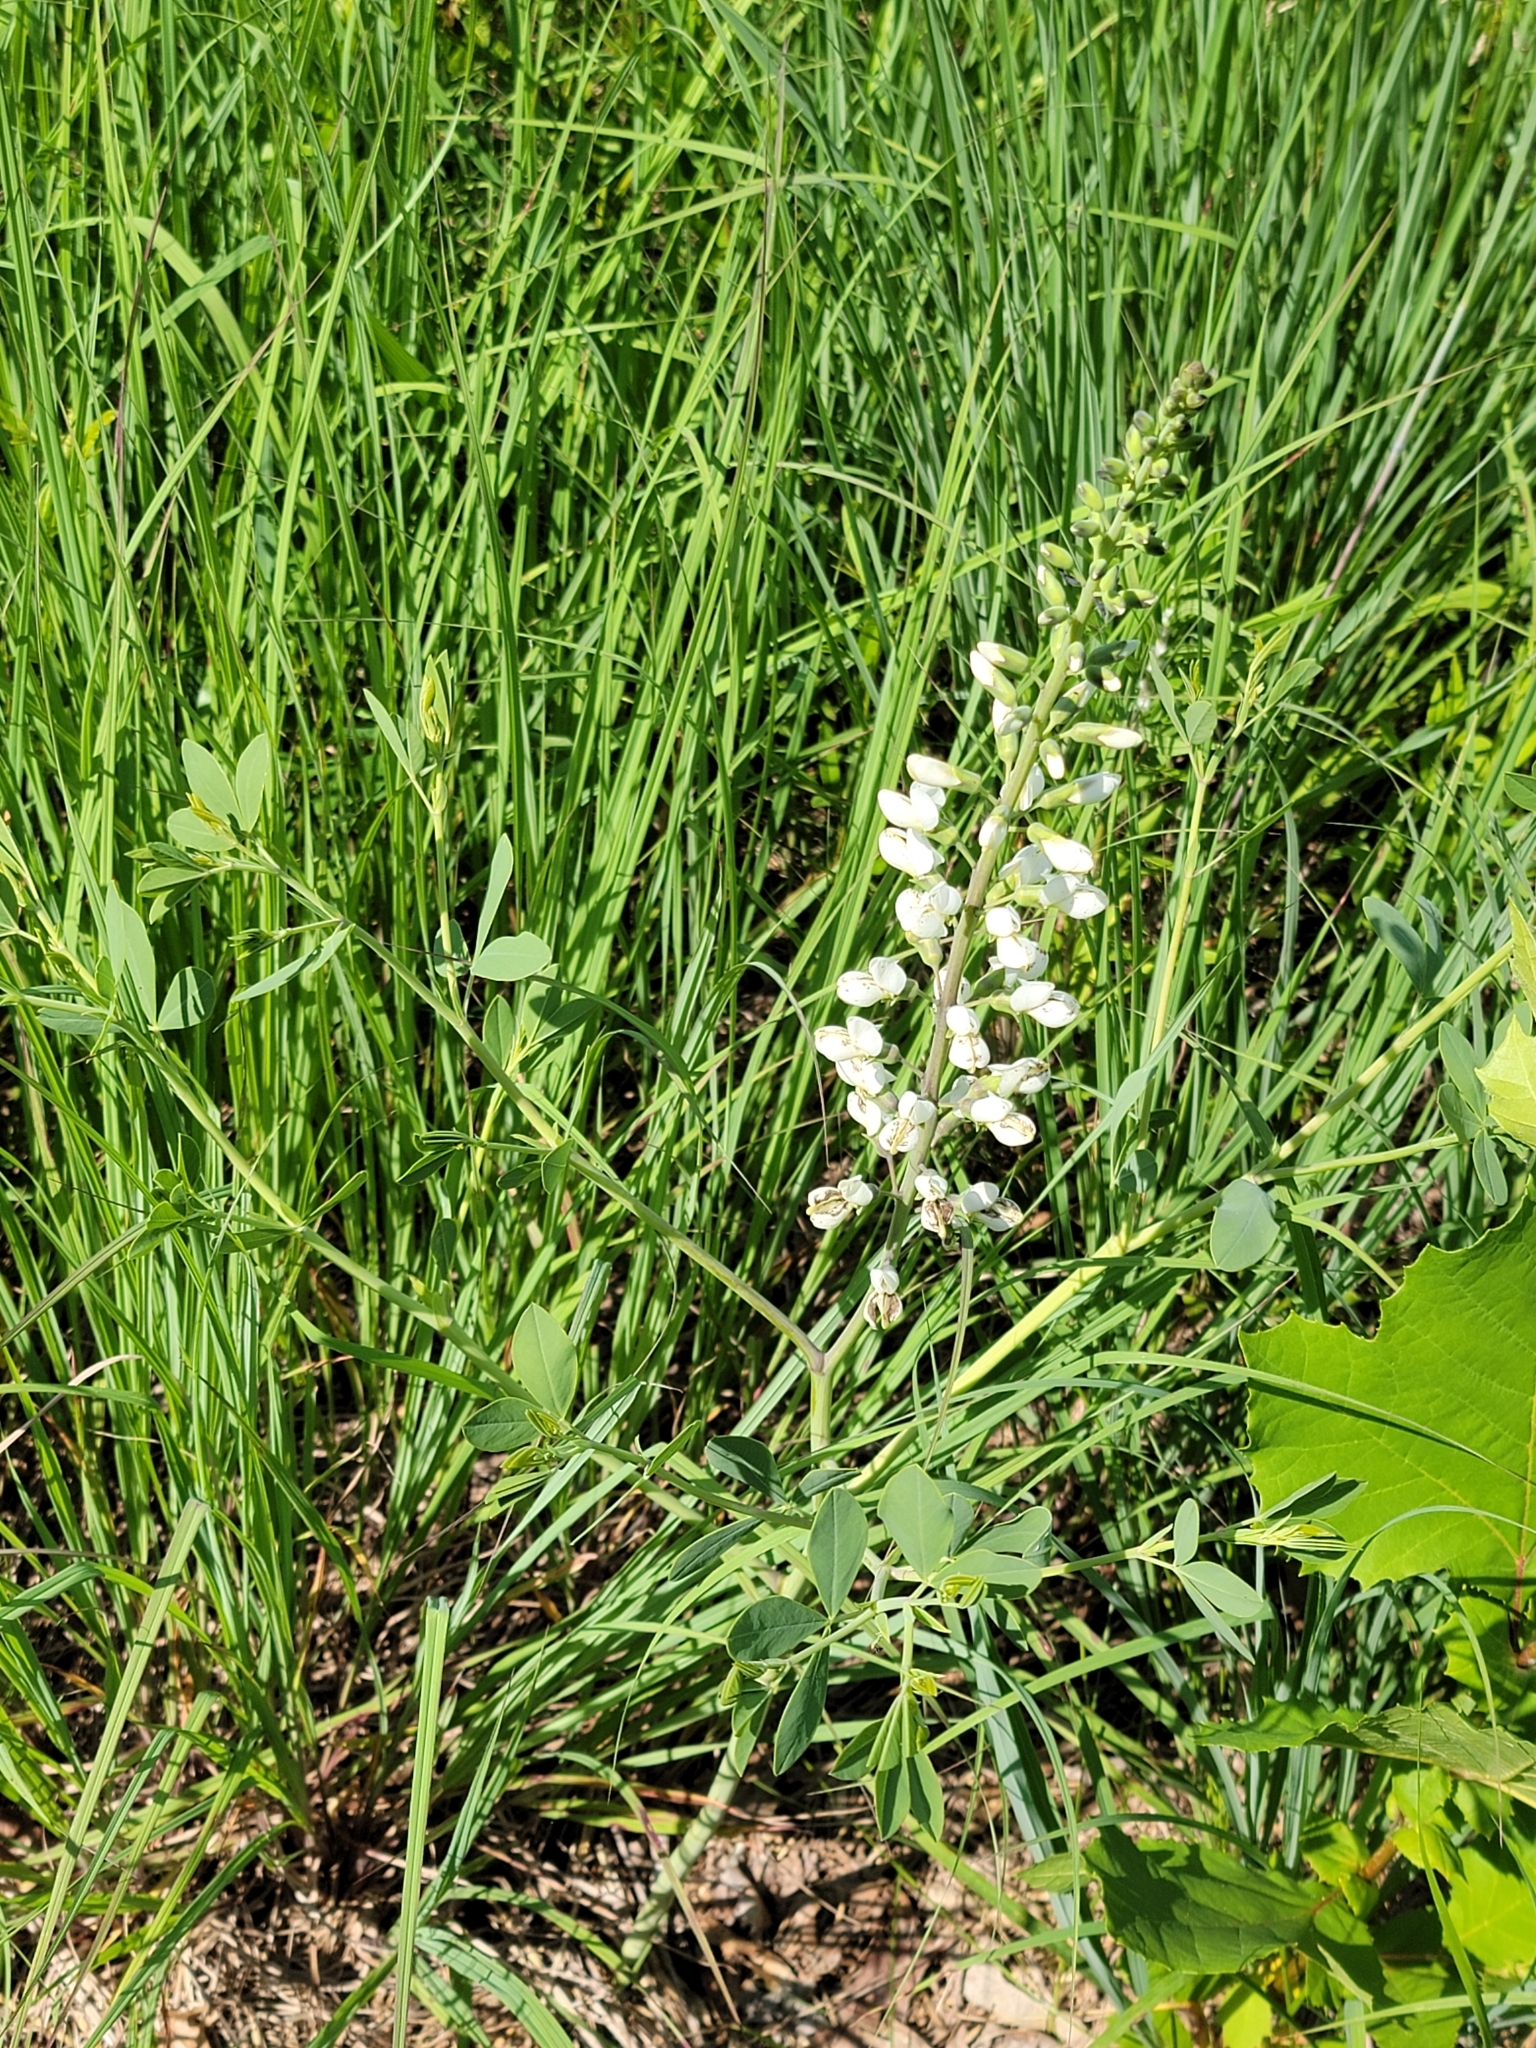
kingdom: Plantae
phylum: Tracheophyta
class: Magnoliopsida
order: Fabales
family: Fabaceae
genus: Baptisia
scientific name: Baptisia alba
